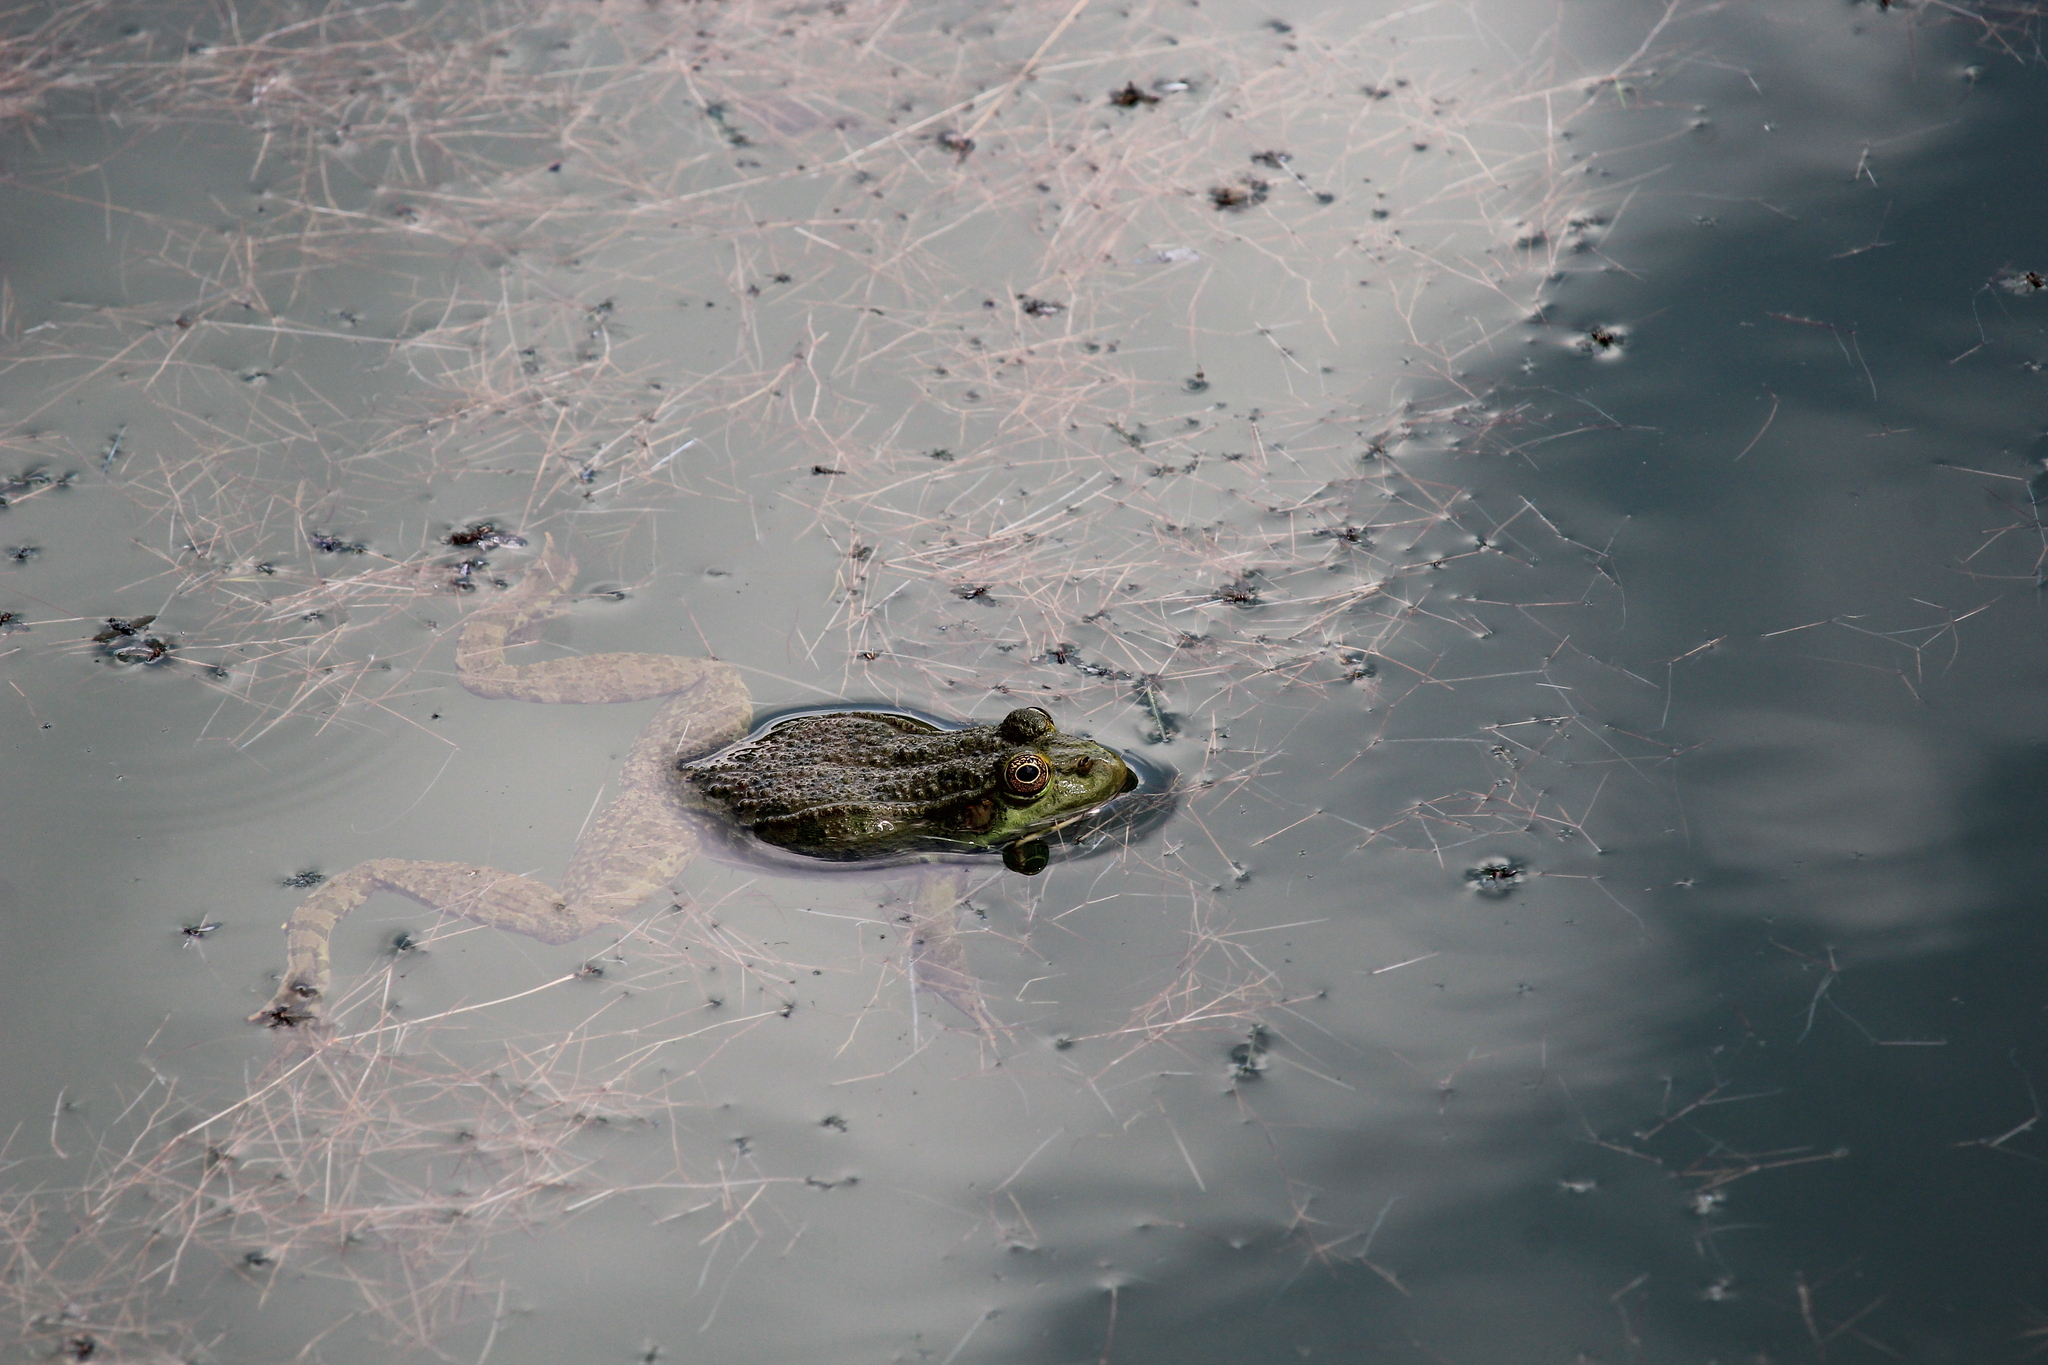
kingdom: Animalia
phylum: Chordata
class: Amphibia
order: Anura
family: Ranidae
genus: Pelophylax
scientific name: Pelophylax ridibundus
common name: Marsh frog
